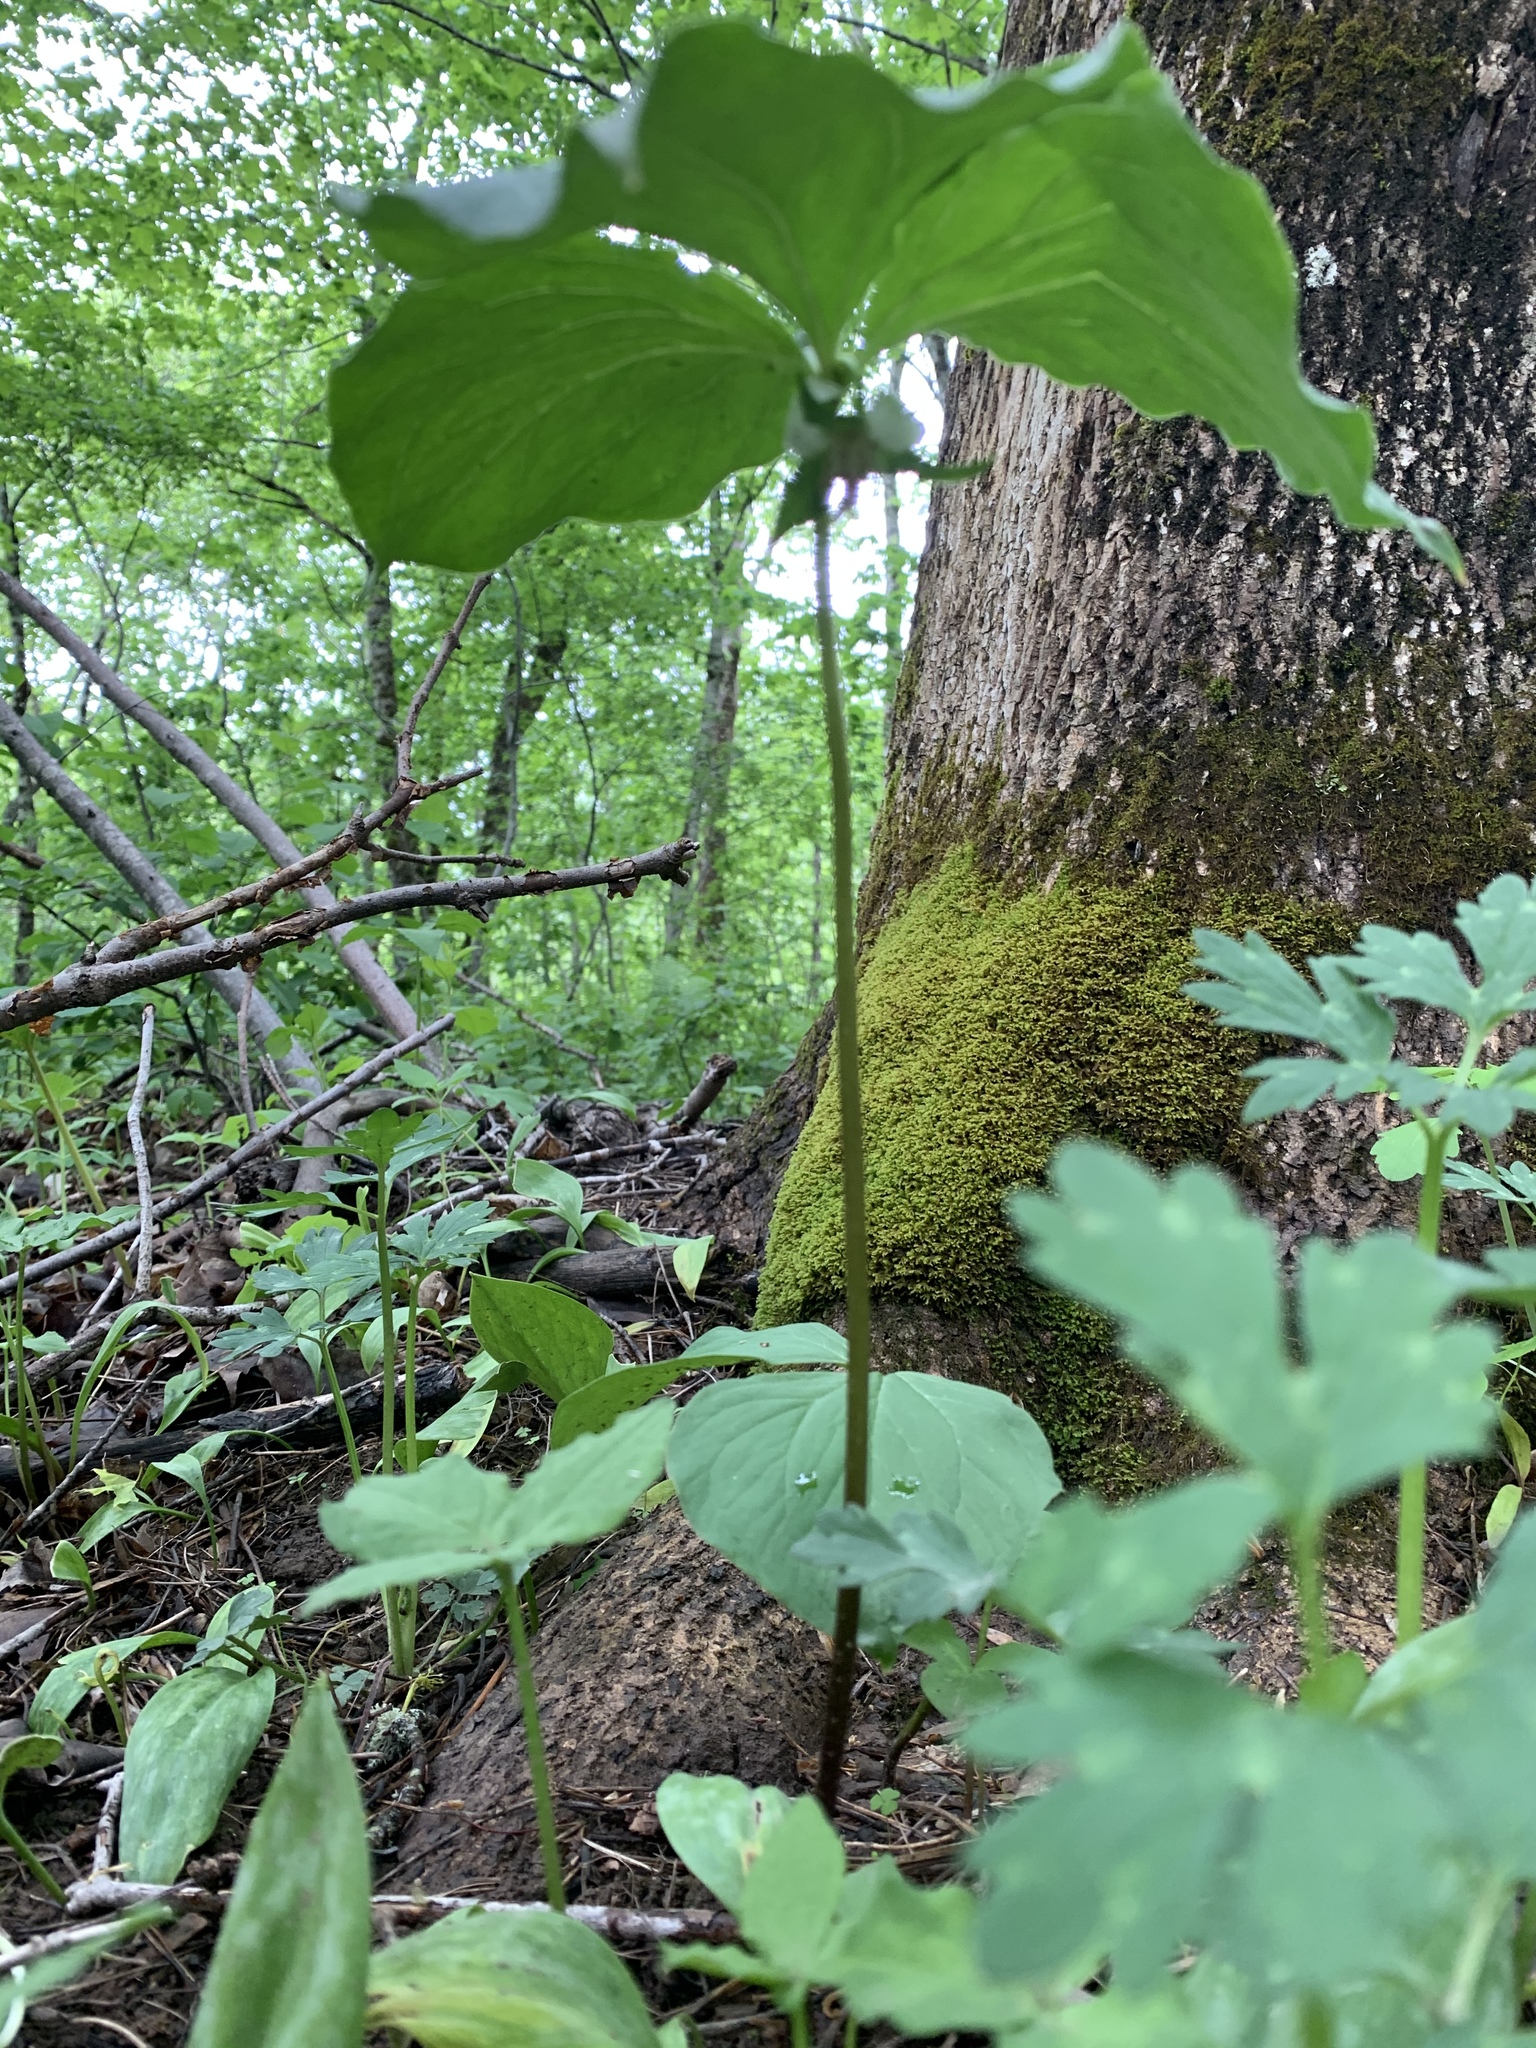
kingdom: Plantae
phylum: Tracheophyta
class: Liliopsida
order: Liliales
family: Melanthiaceae
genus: Trillium
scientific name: Trillium cernuum
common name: Nodding trillium
